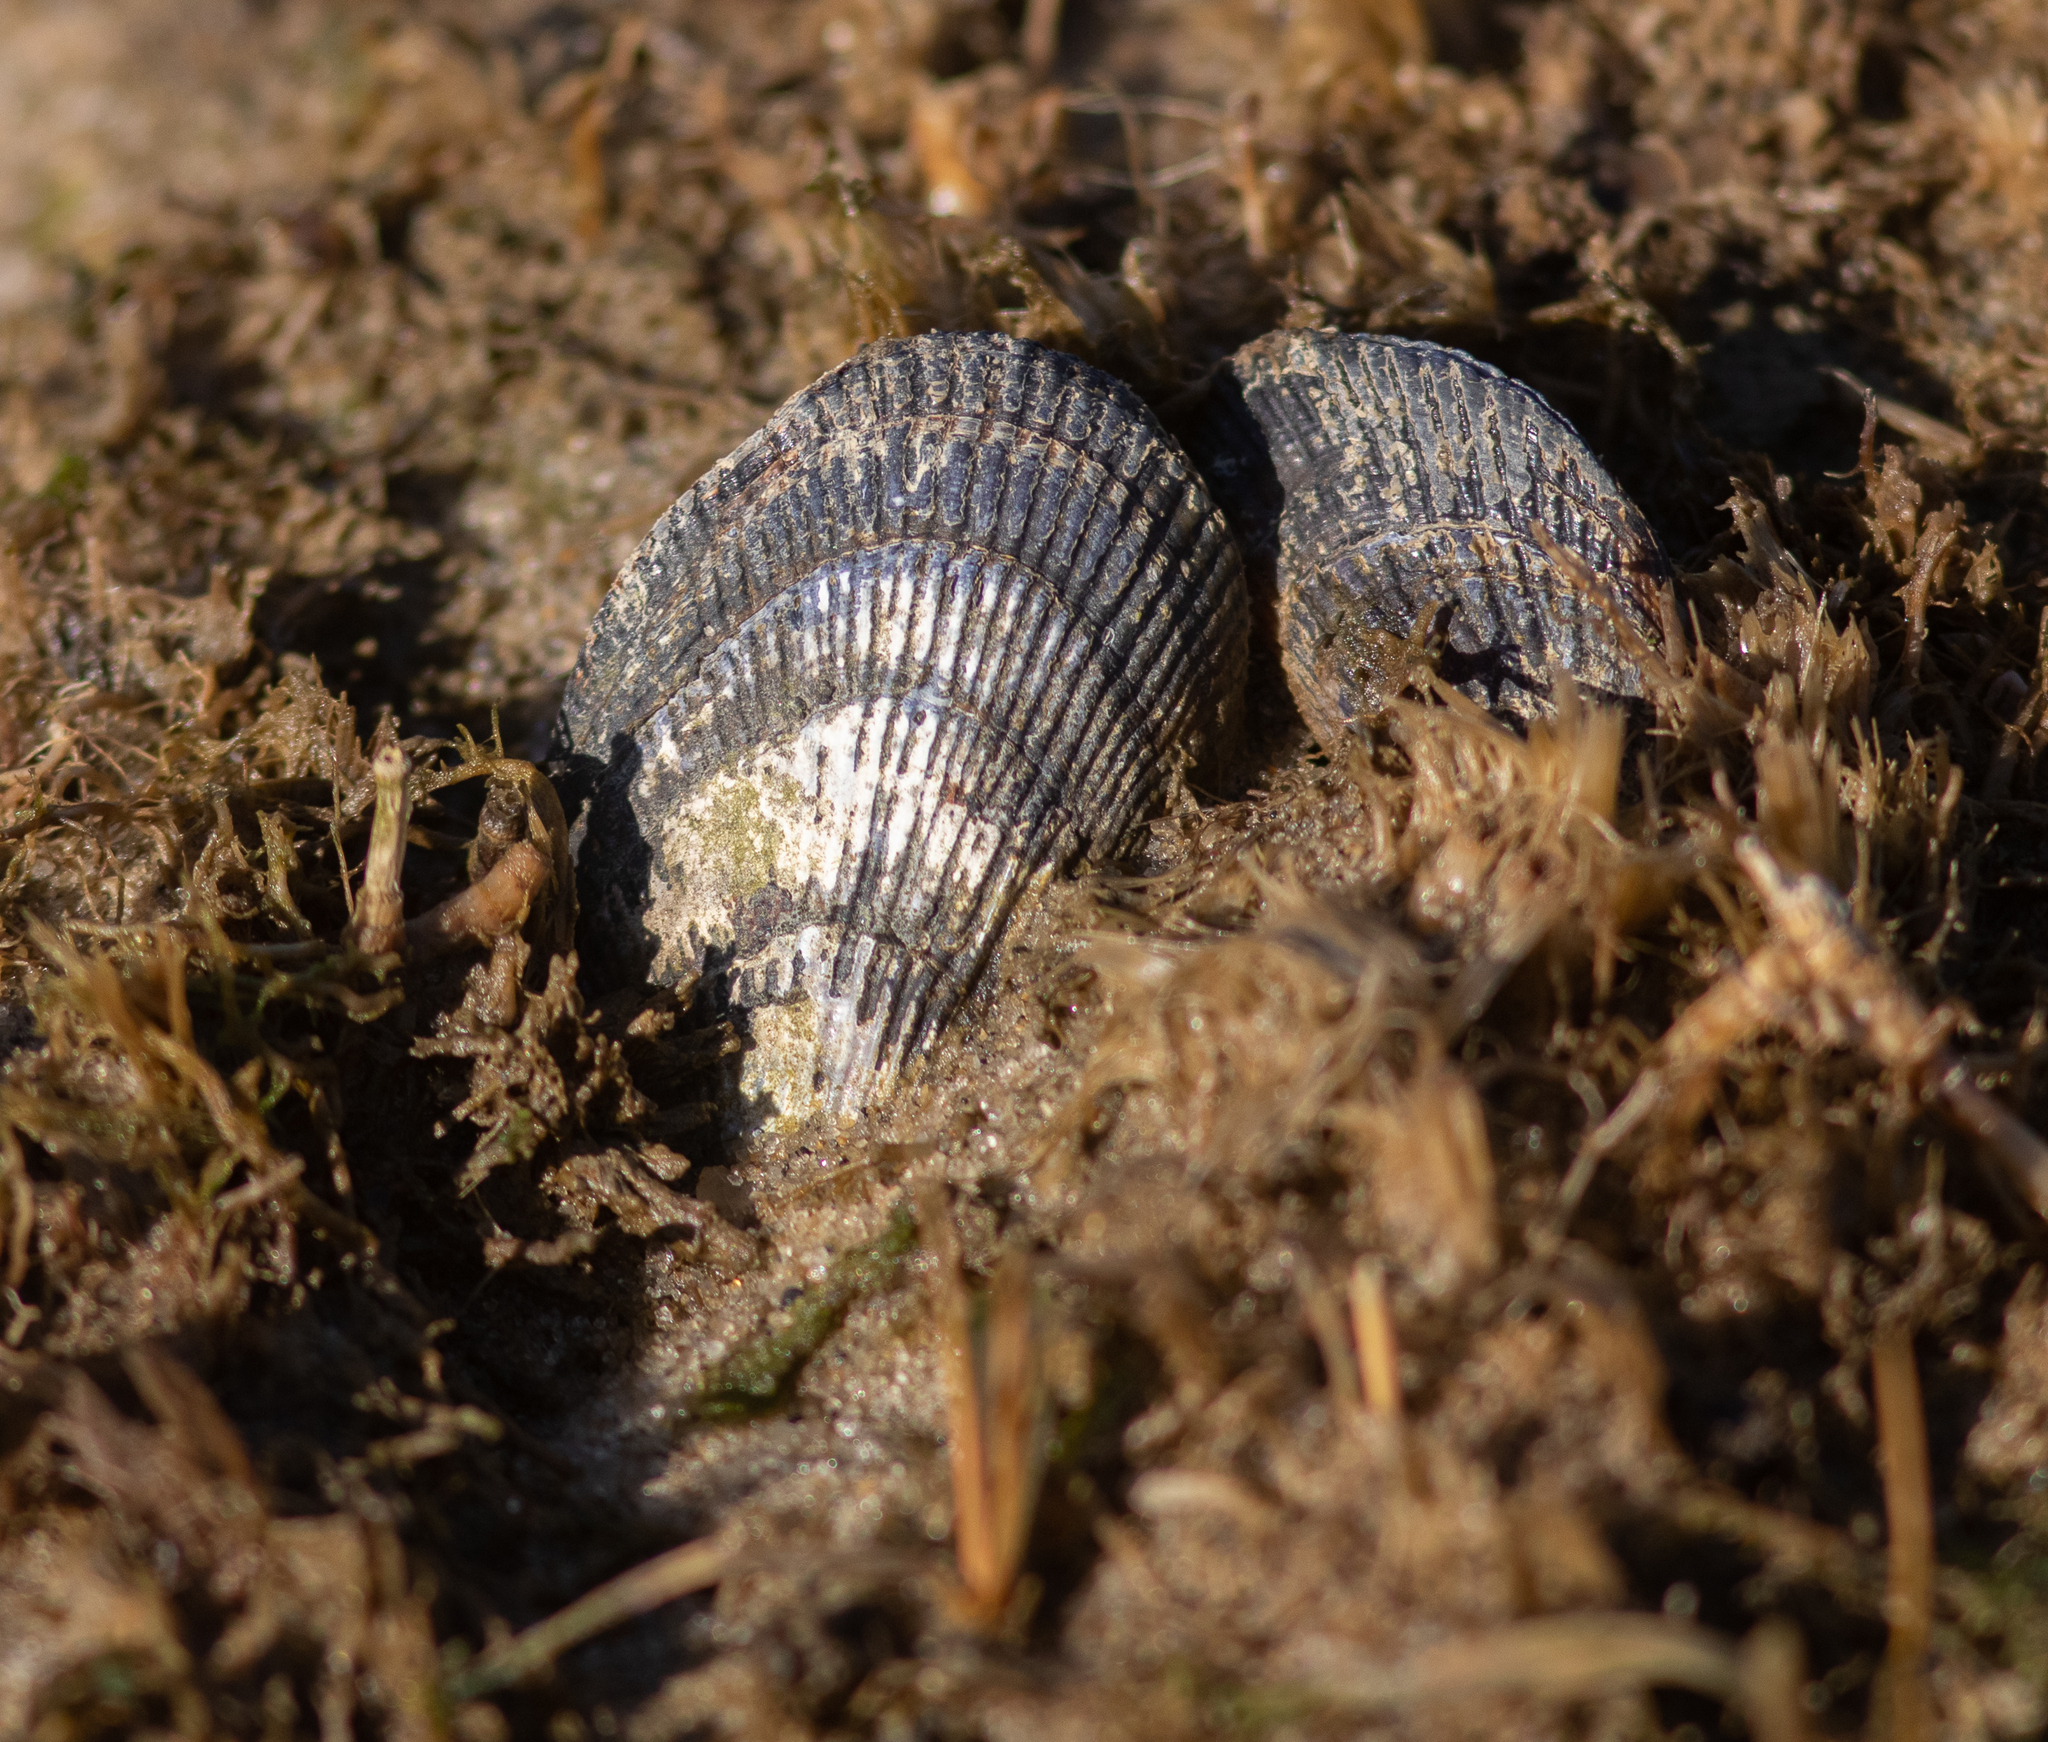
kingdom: Animalia
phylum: Mollusca
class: Bivalvia
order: Mytilida
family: Mytilidae
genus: Geukensia
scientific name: Geukensia demissa
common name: Ribbed mussel
